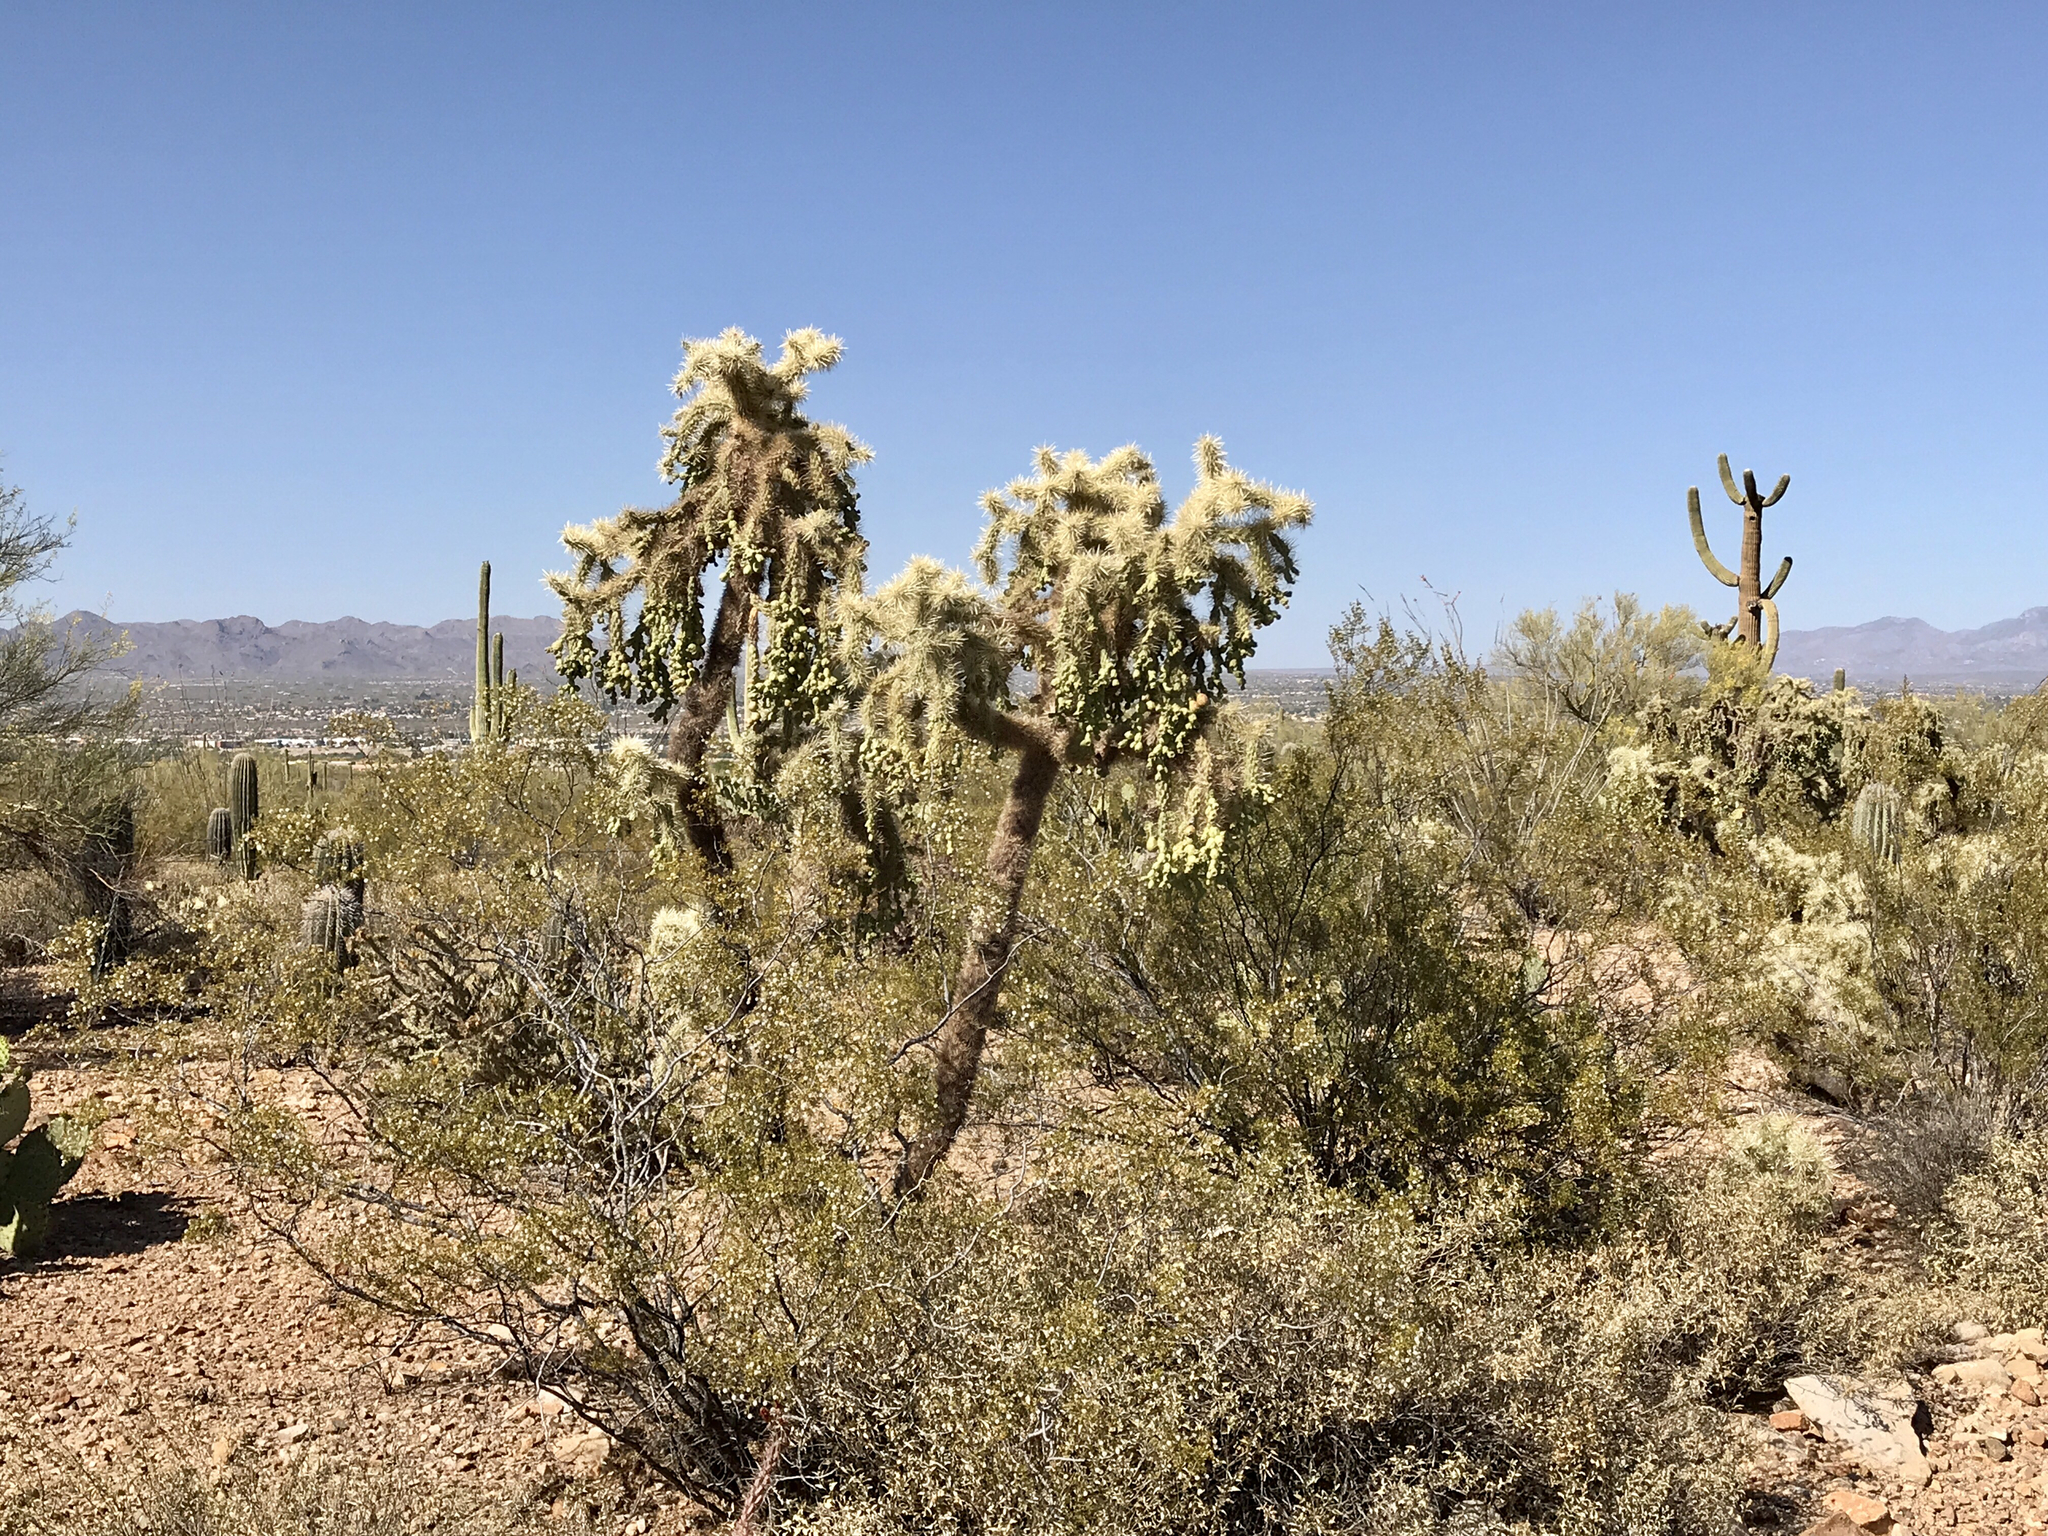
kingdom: Plantae
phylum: Tracheophyta
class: Magnoliopsida
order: Caryophyllales
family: Cactaceae
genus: Cylindropuntia
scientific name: Cylindropuntia fulgida
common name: Jumping cholla
